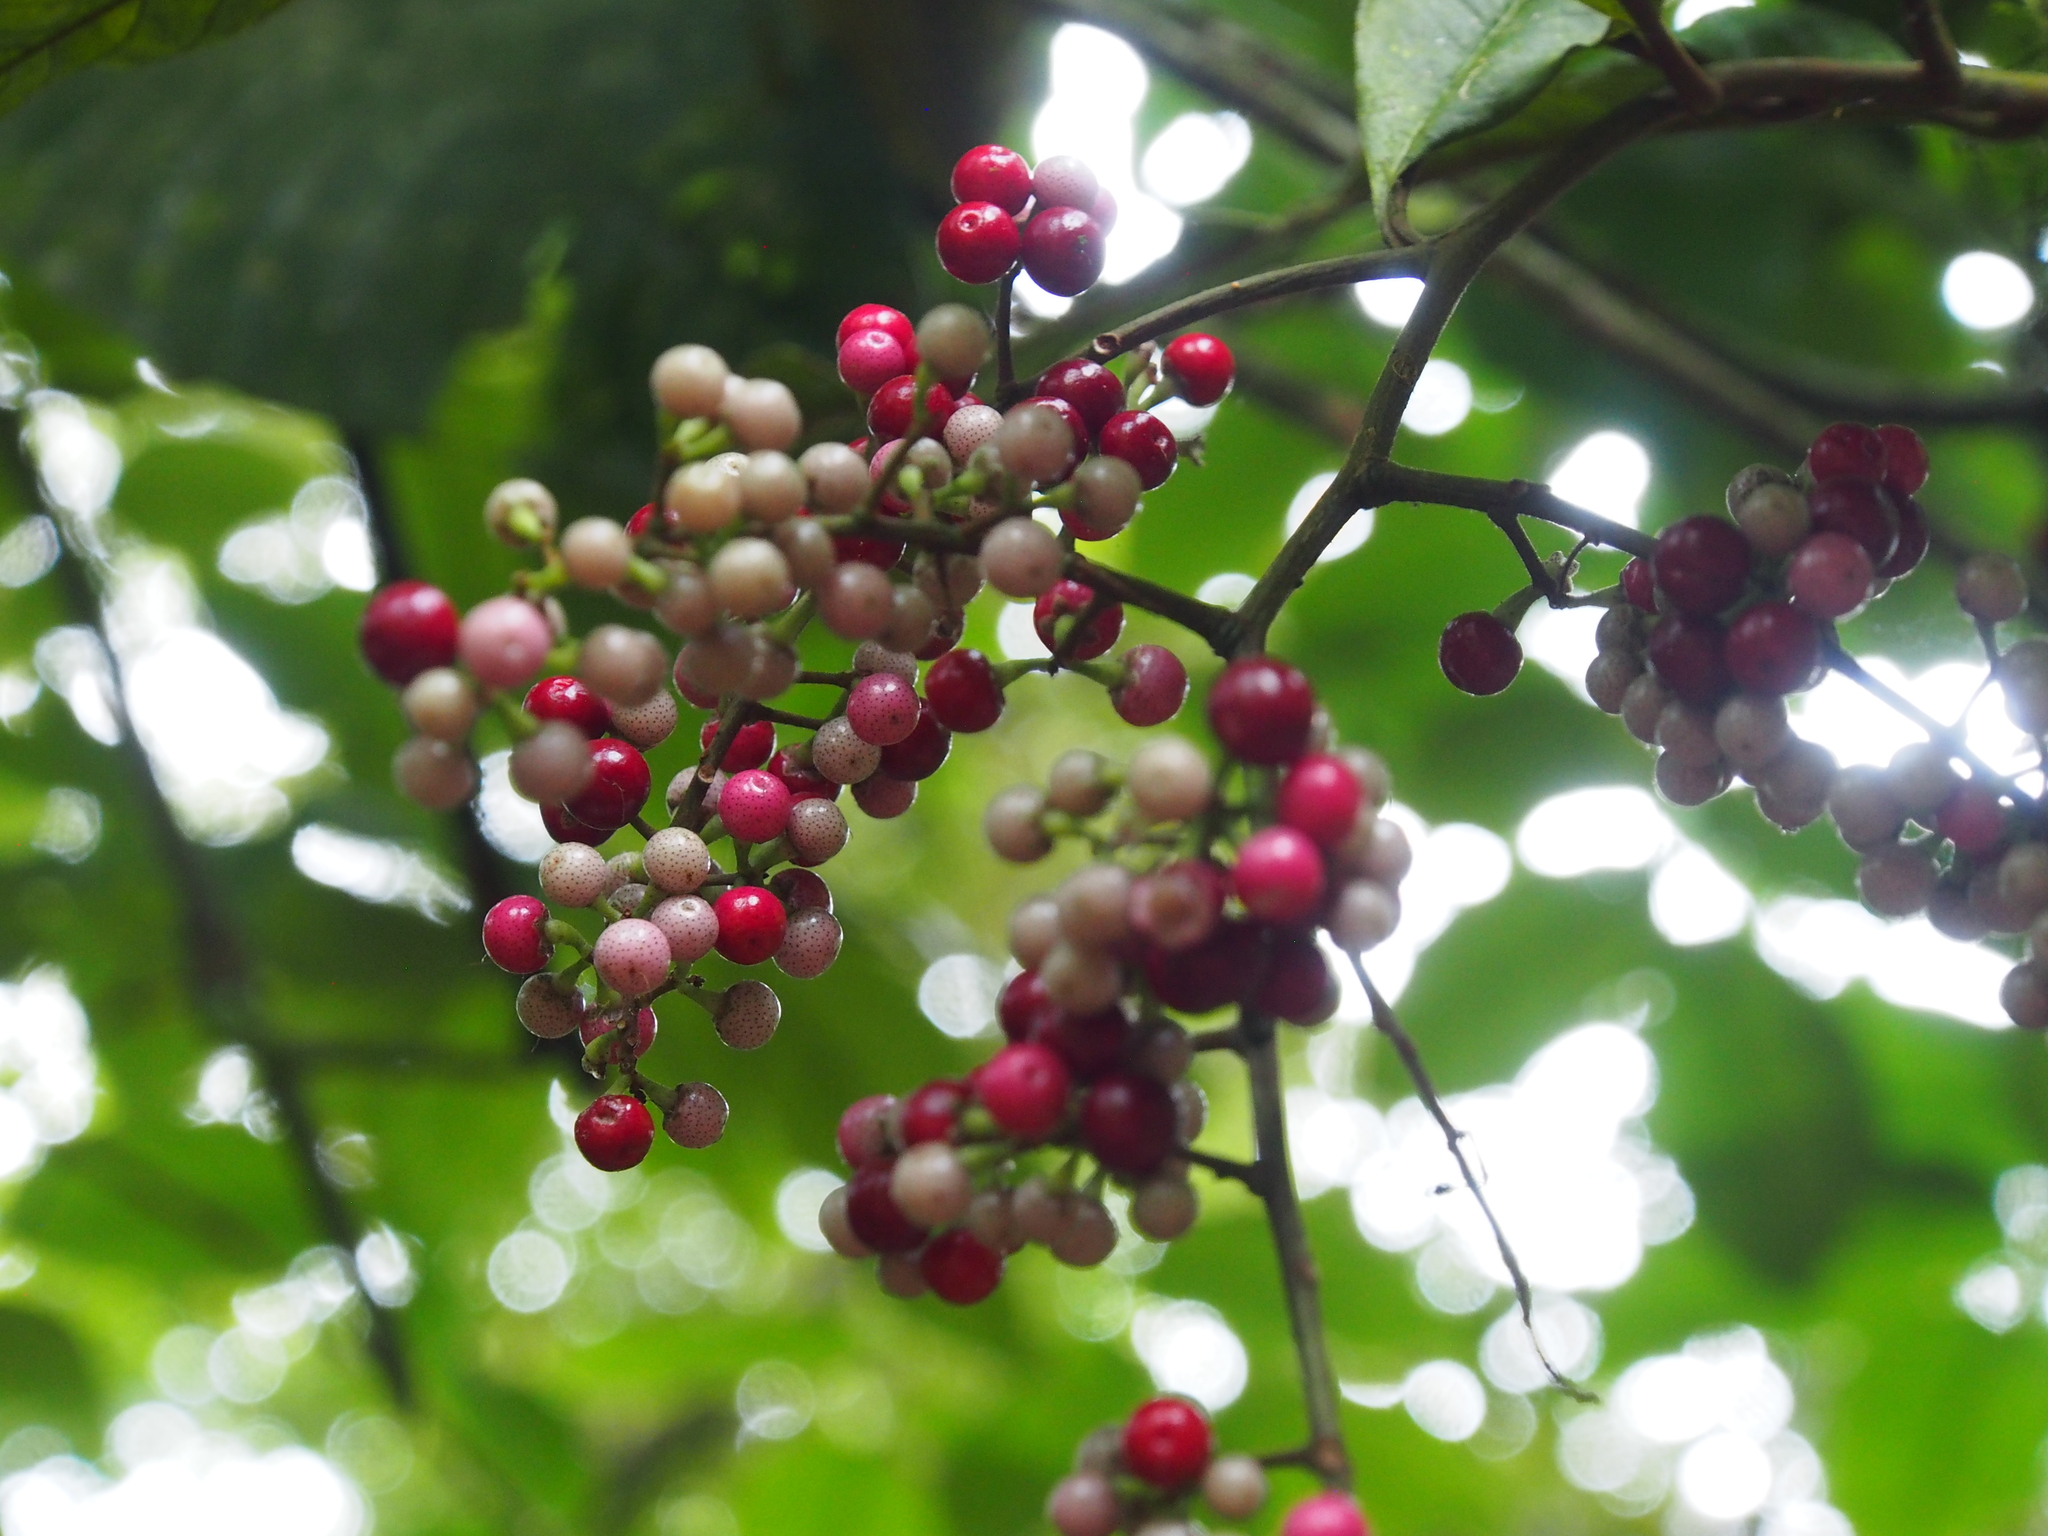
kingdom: Plantae
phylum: Tracheophyta
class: Magnoliopsida
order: Ericales
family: Primulaceae
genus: Ardisia
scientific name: Ardisia nigropunctata
